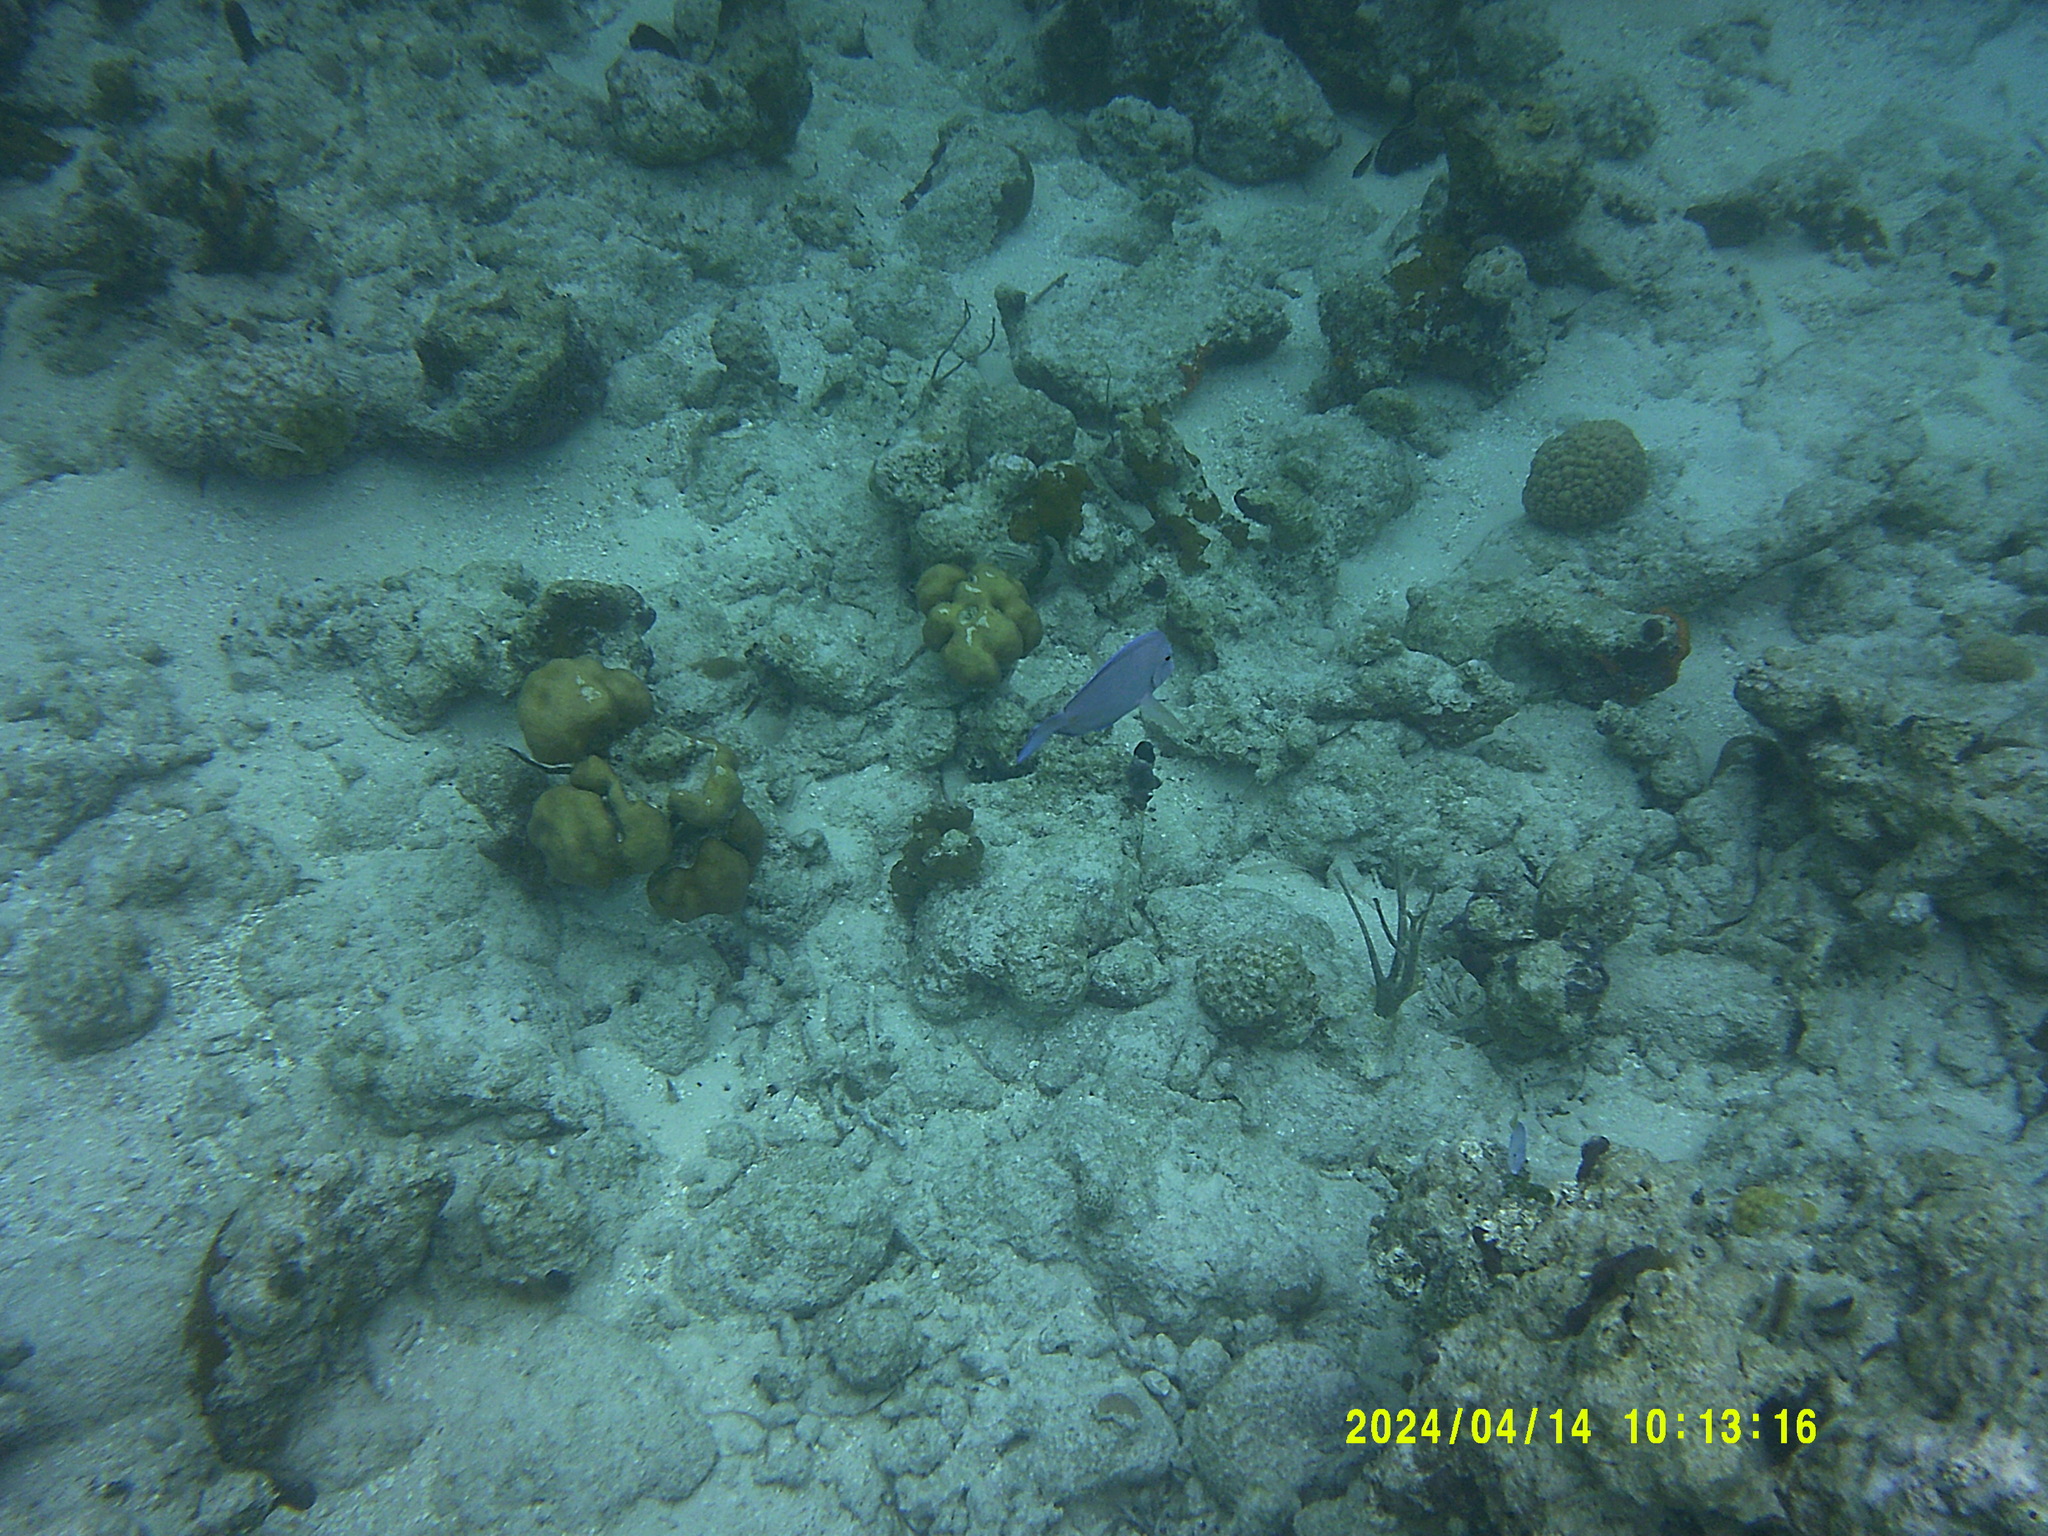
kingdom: Animalia
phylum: Chordata
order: Perciformes
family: Acanthuridae
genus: Acanthurus
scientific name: Acanthurus coeruleus
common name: Blue tang
